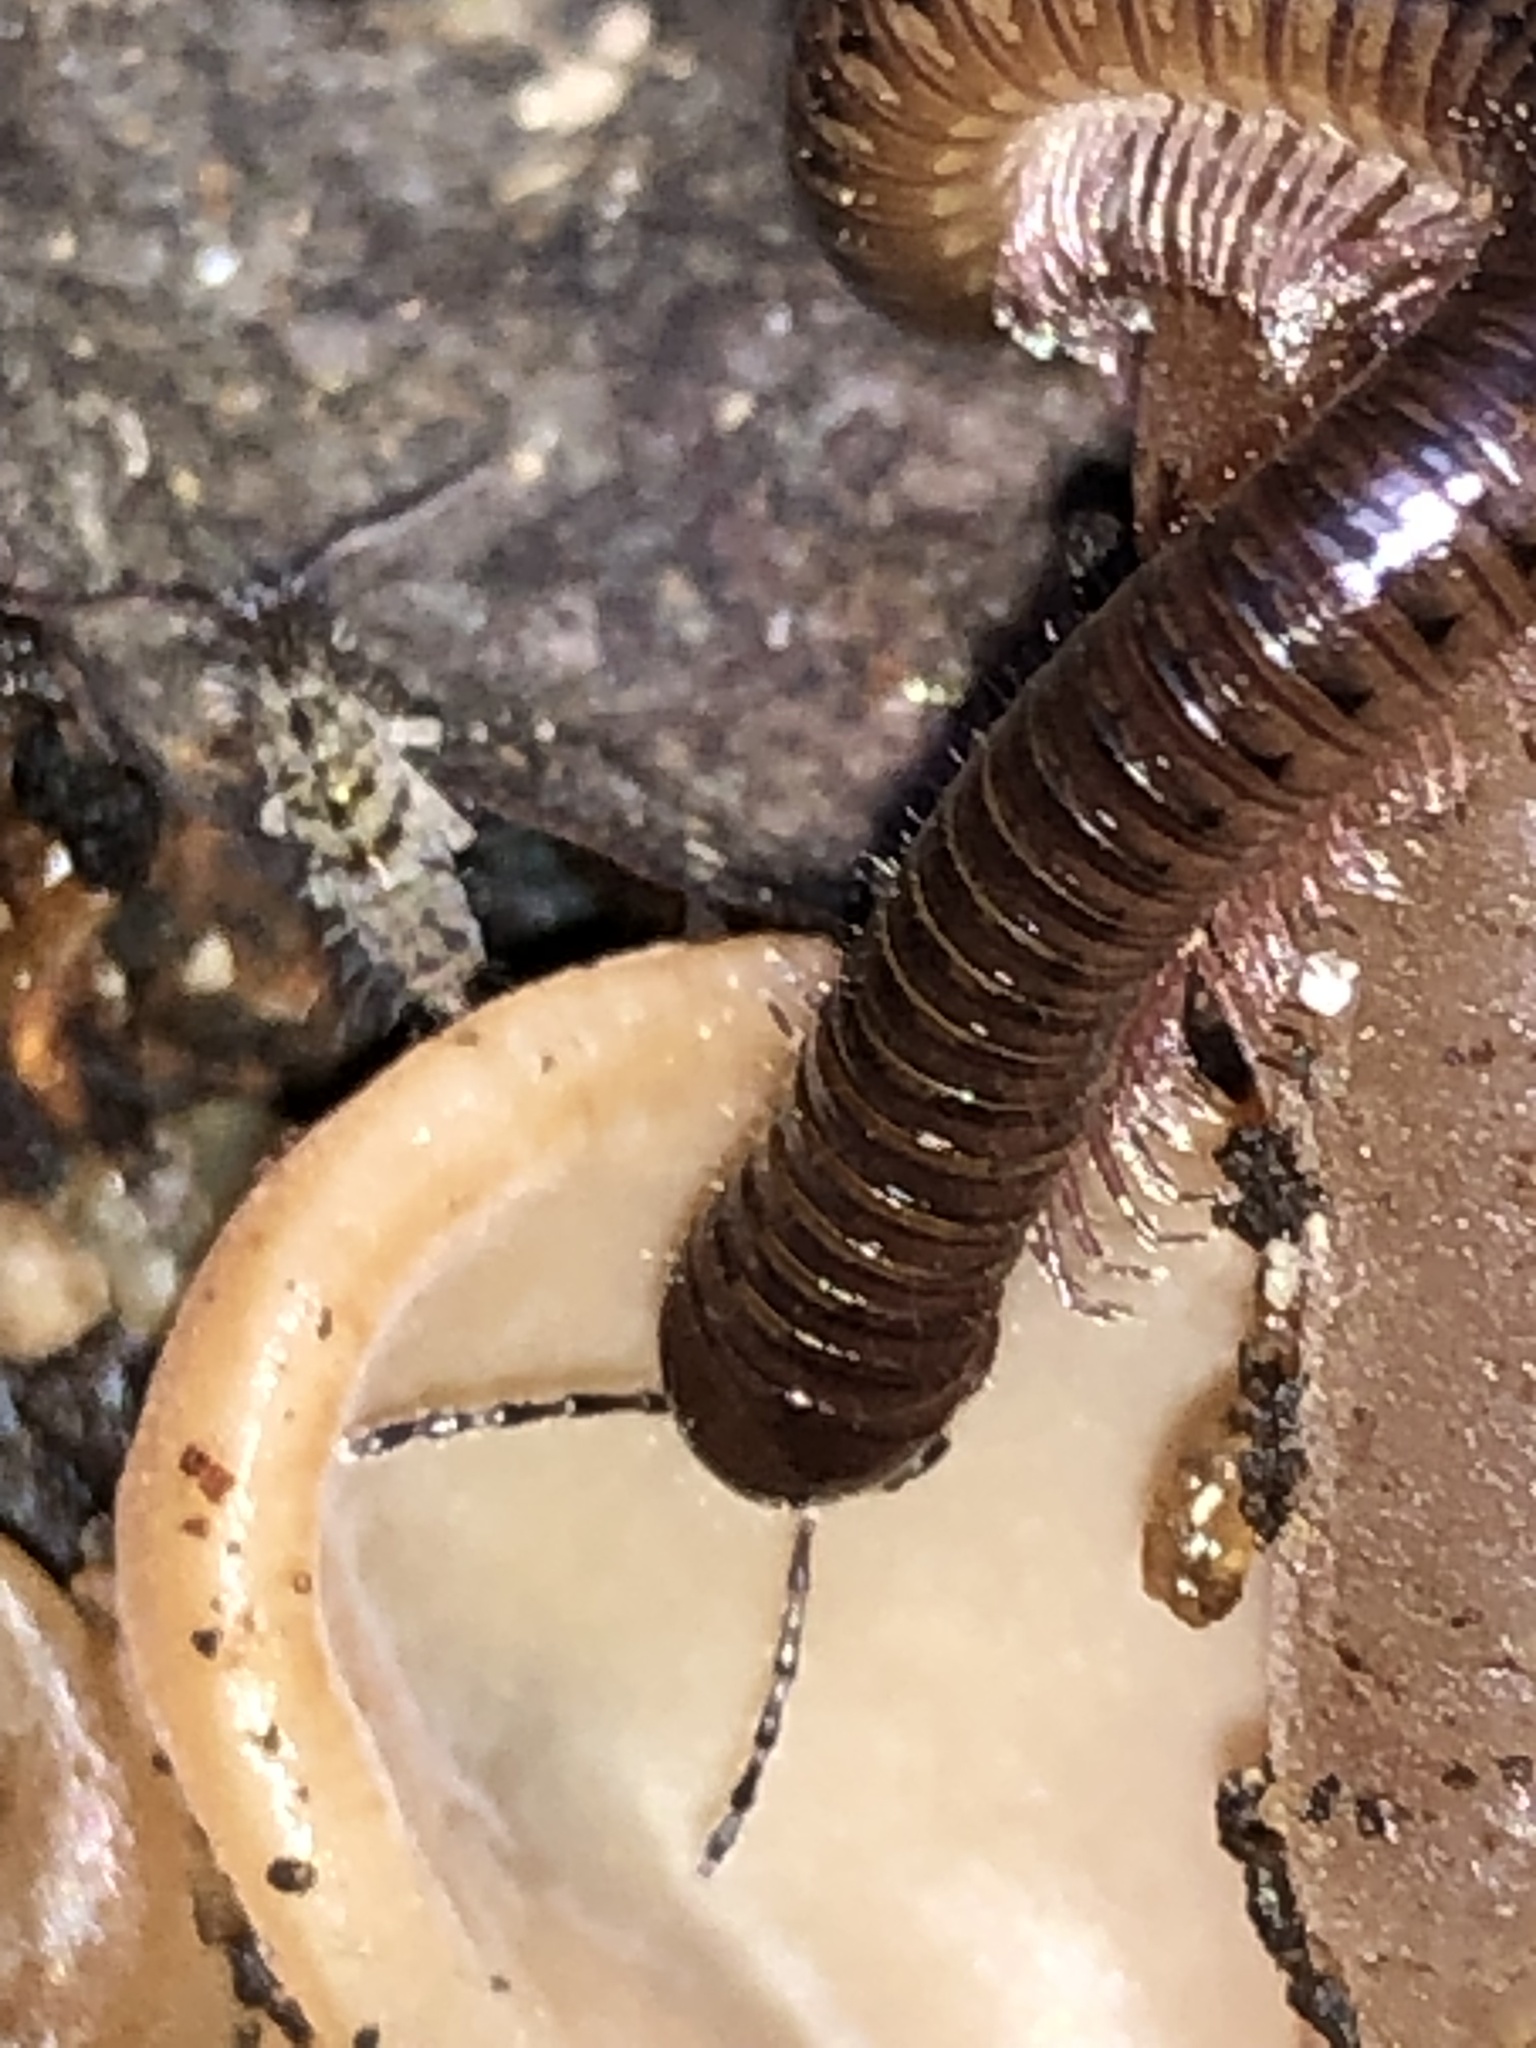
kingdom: Animalia
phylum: Arthropoda
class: Diplopoda
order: Julida
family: Parajulidae
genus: Ptyoiulus
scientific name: Ptyoiulus impressus
